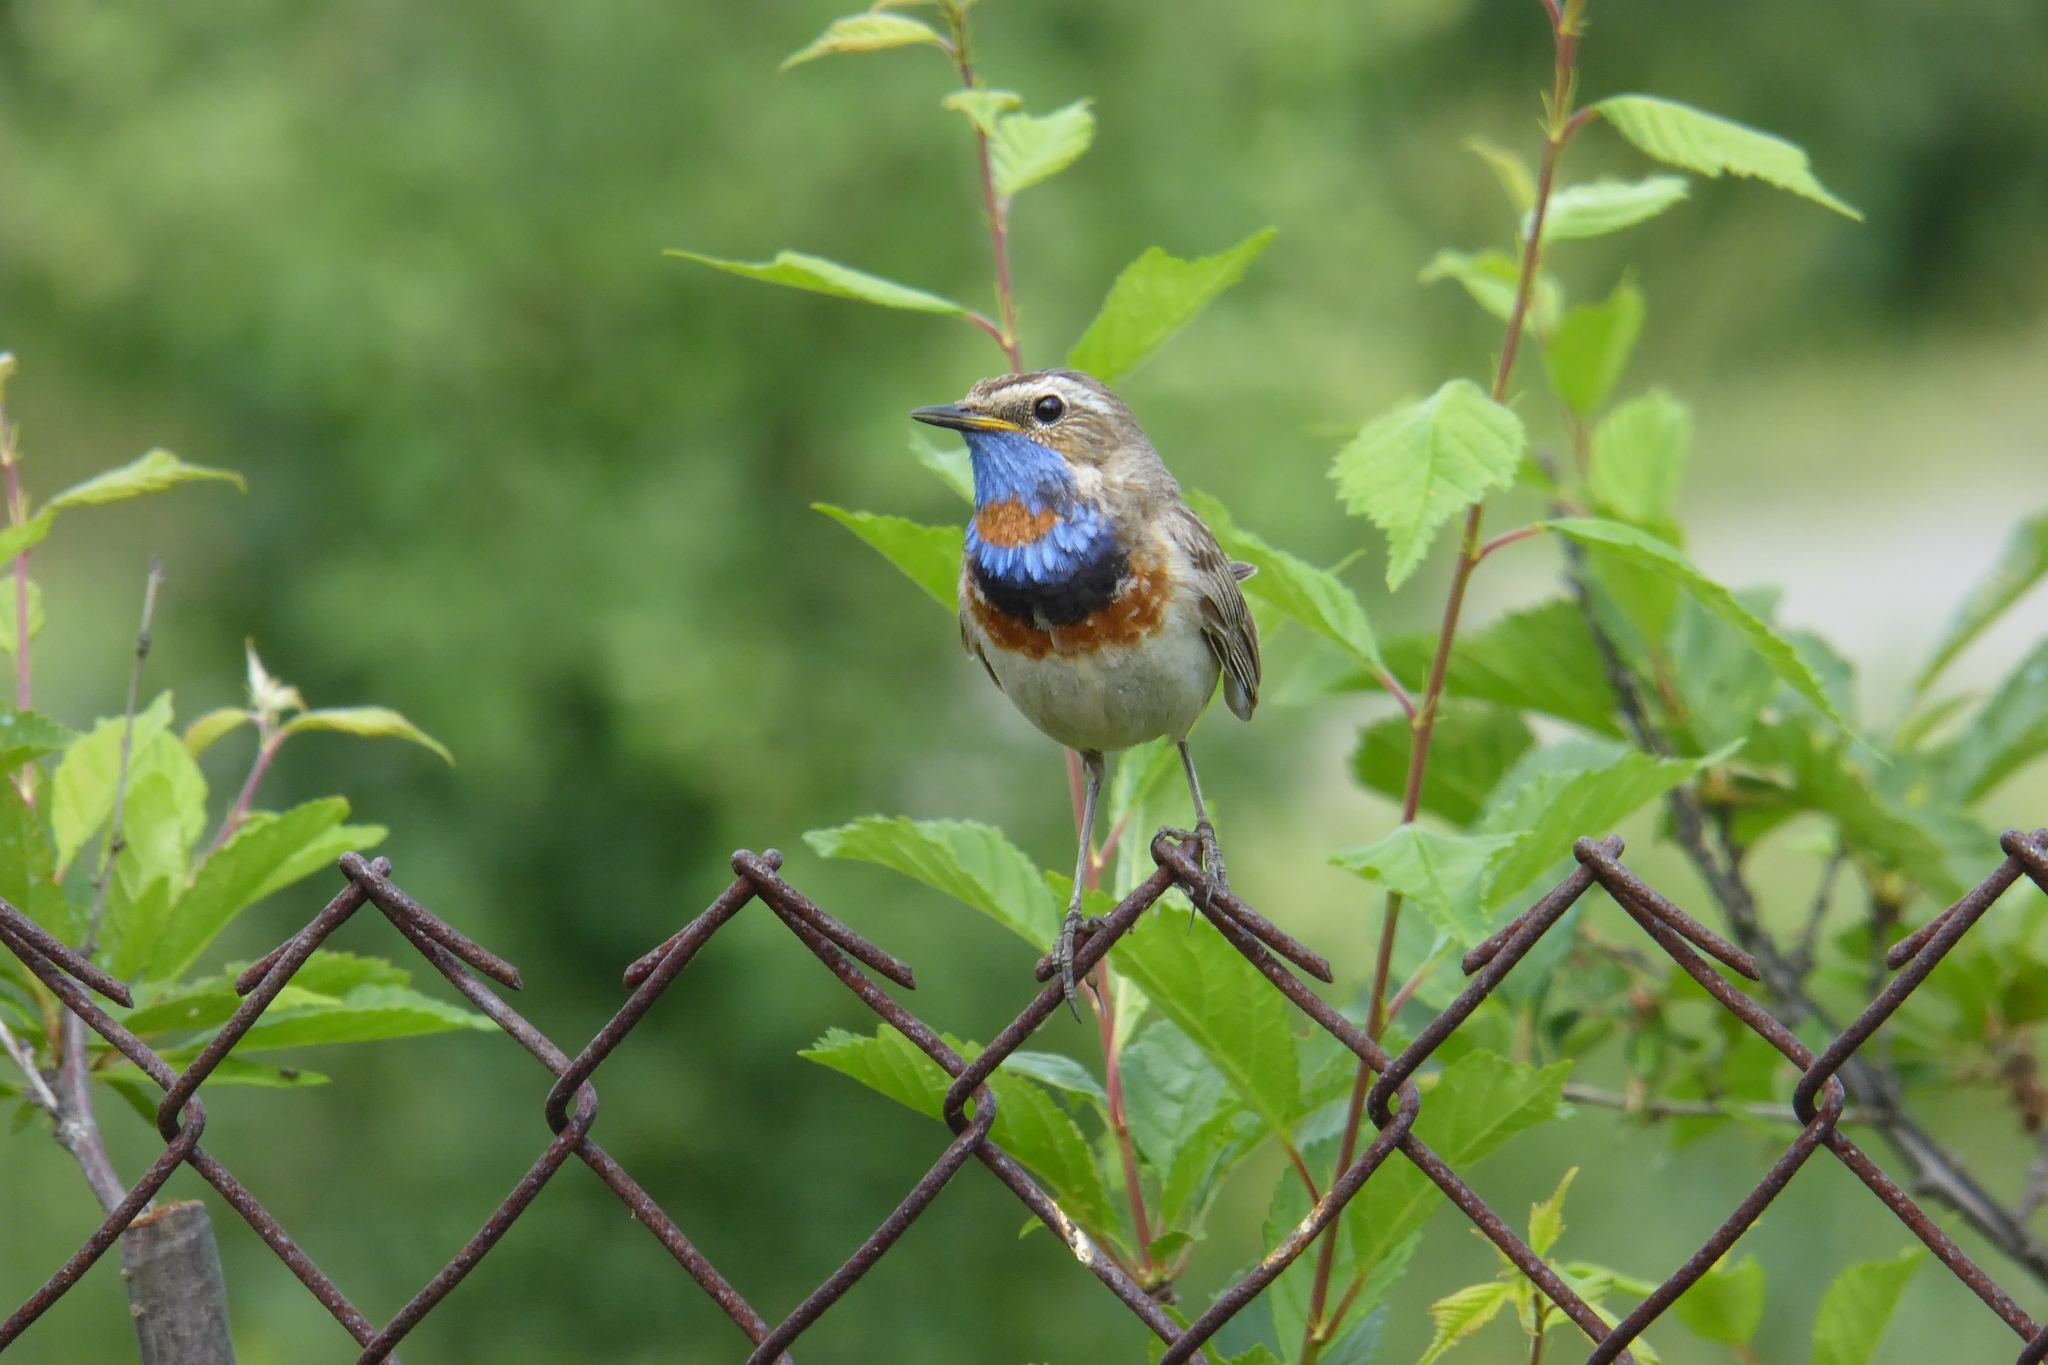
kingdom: Animalia
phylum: Chordata
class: Aves
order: Passeriformes
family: Muscicapidae
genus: Luscinia
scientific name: Luscinia svecica
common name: Bluethroat
